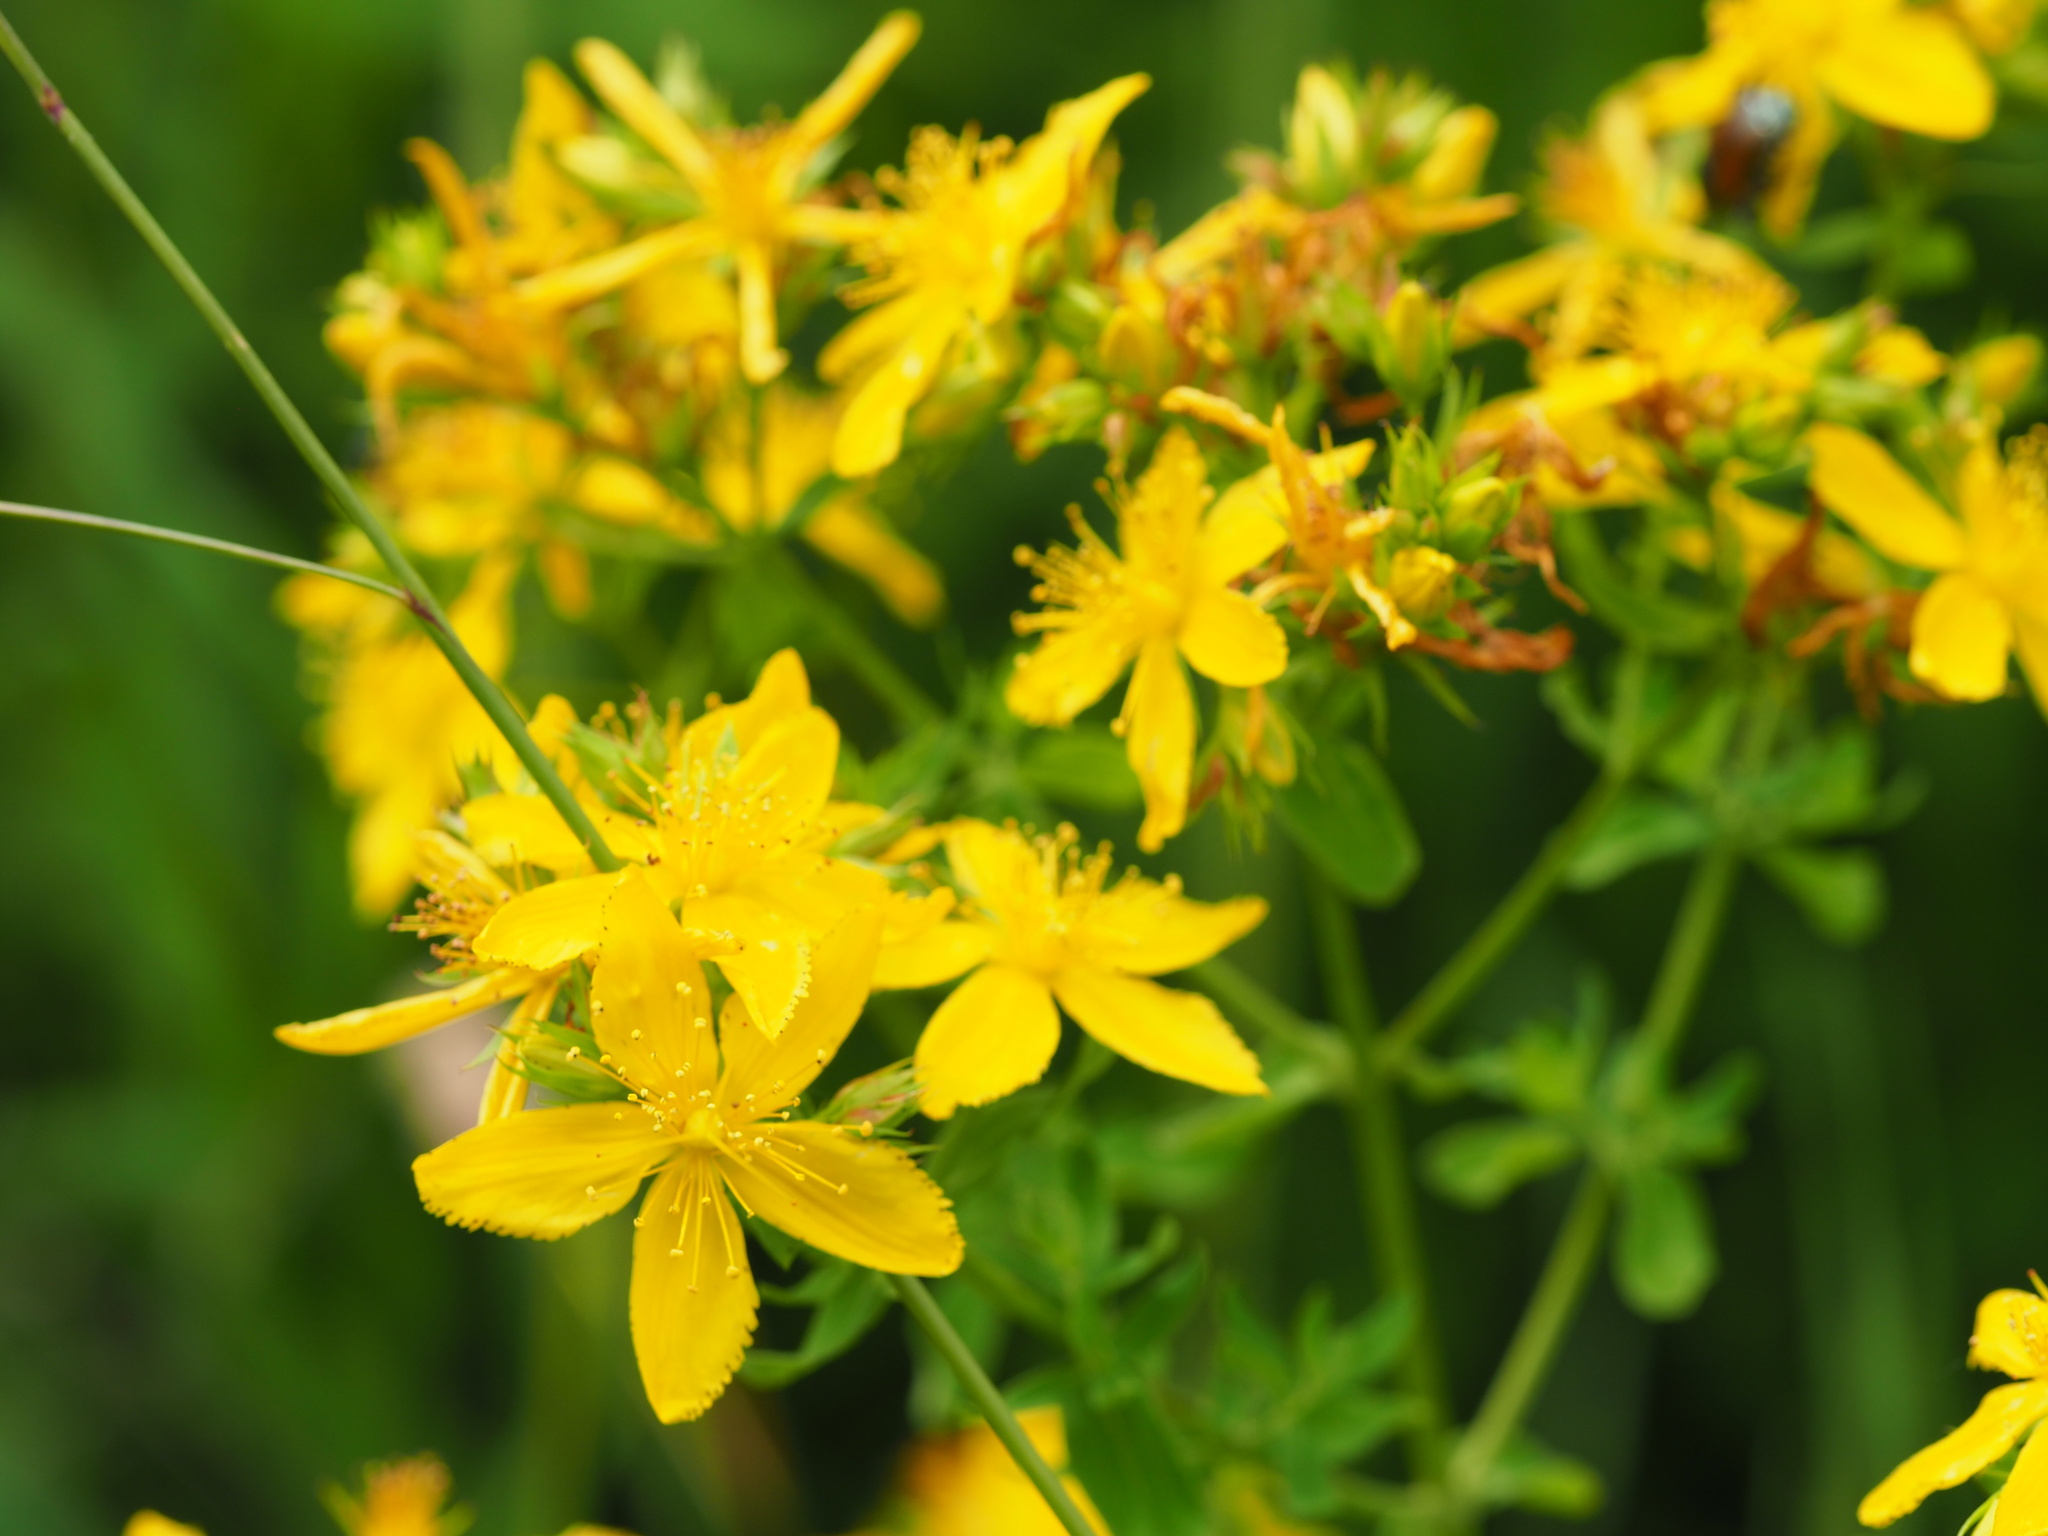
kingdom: Plantae
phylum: Tracheophyta
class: Magnoliopsida
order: Malpighiales
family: Hypericaceae
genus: Hypericum
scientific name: Hypericum perforatum
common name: Common st. johnswort
